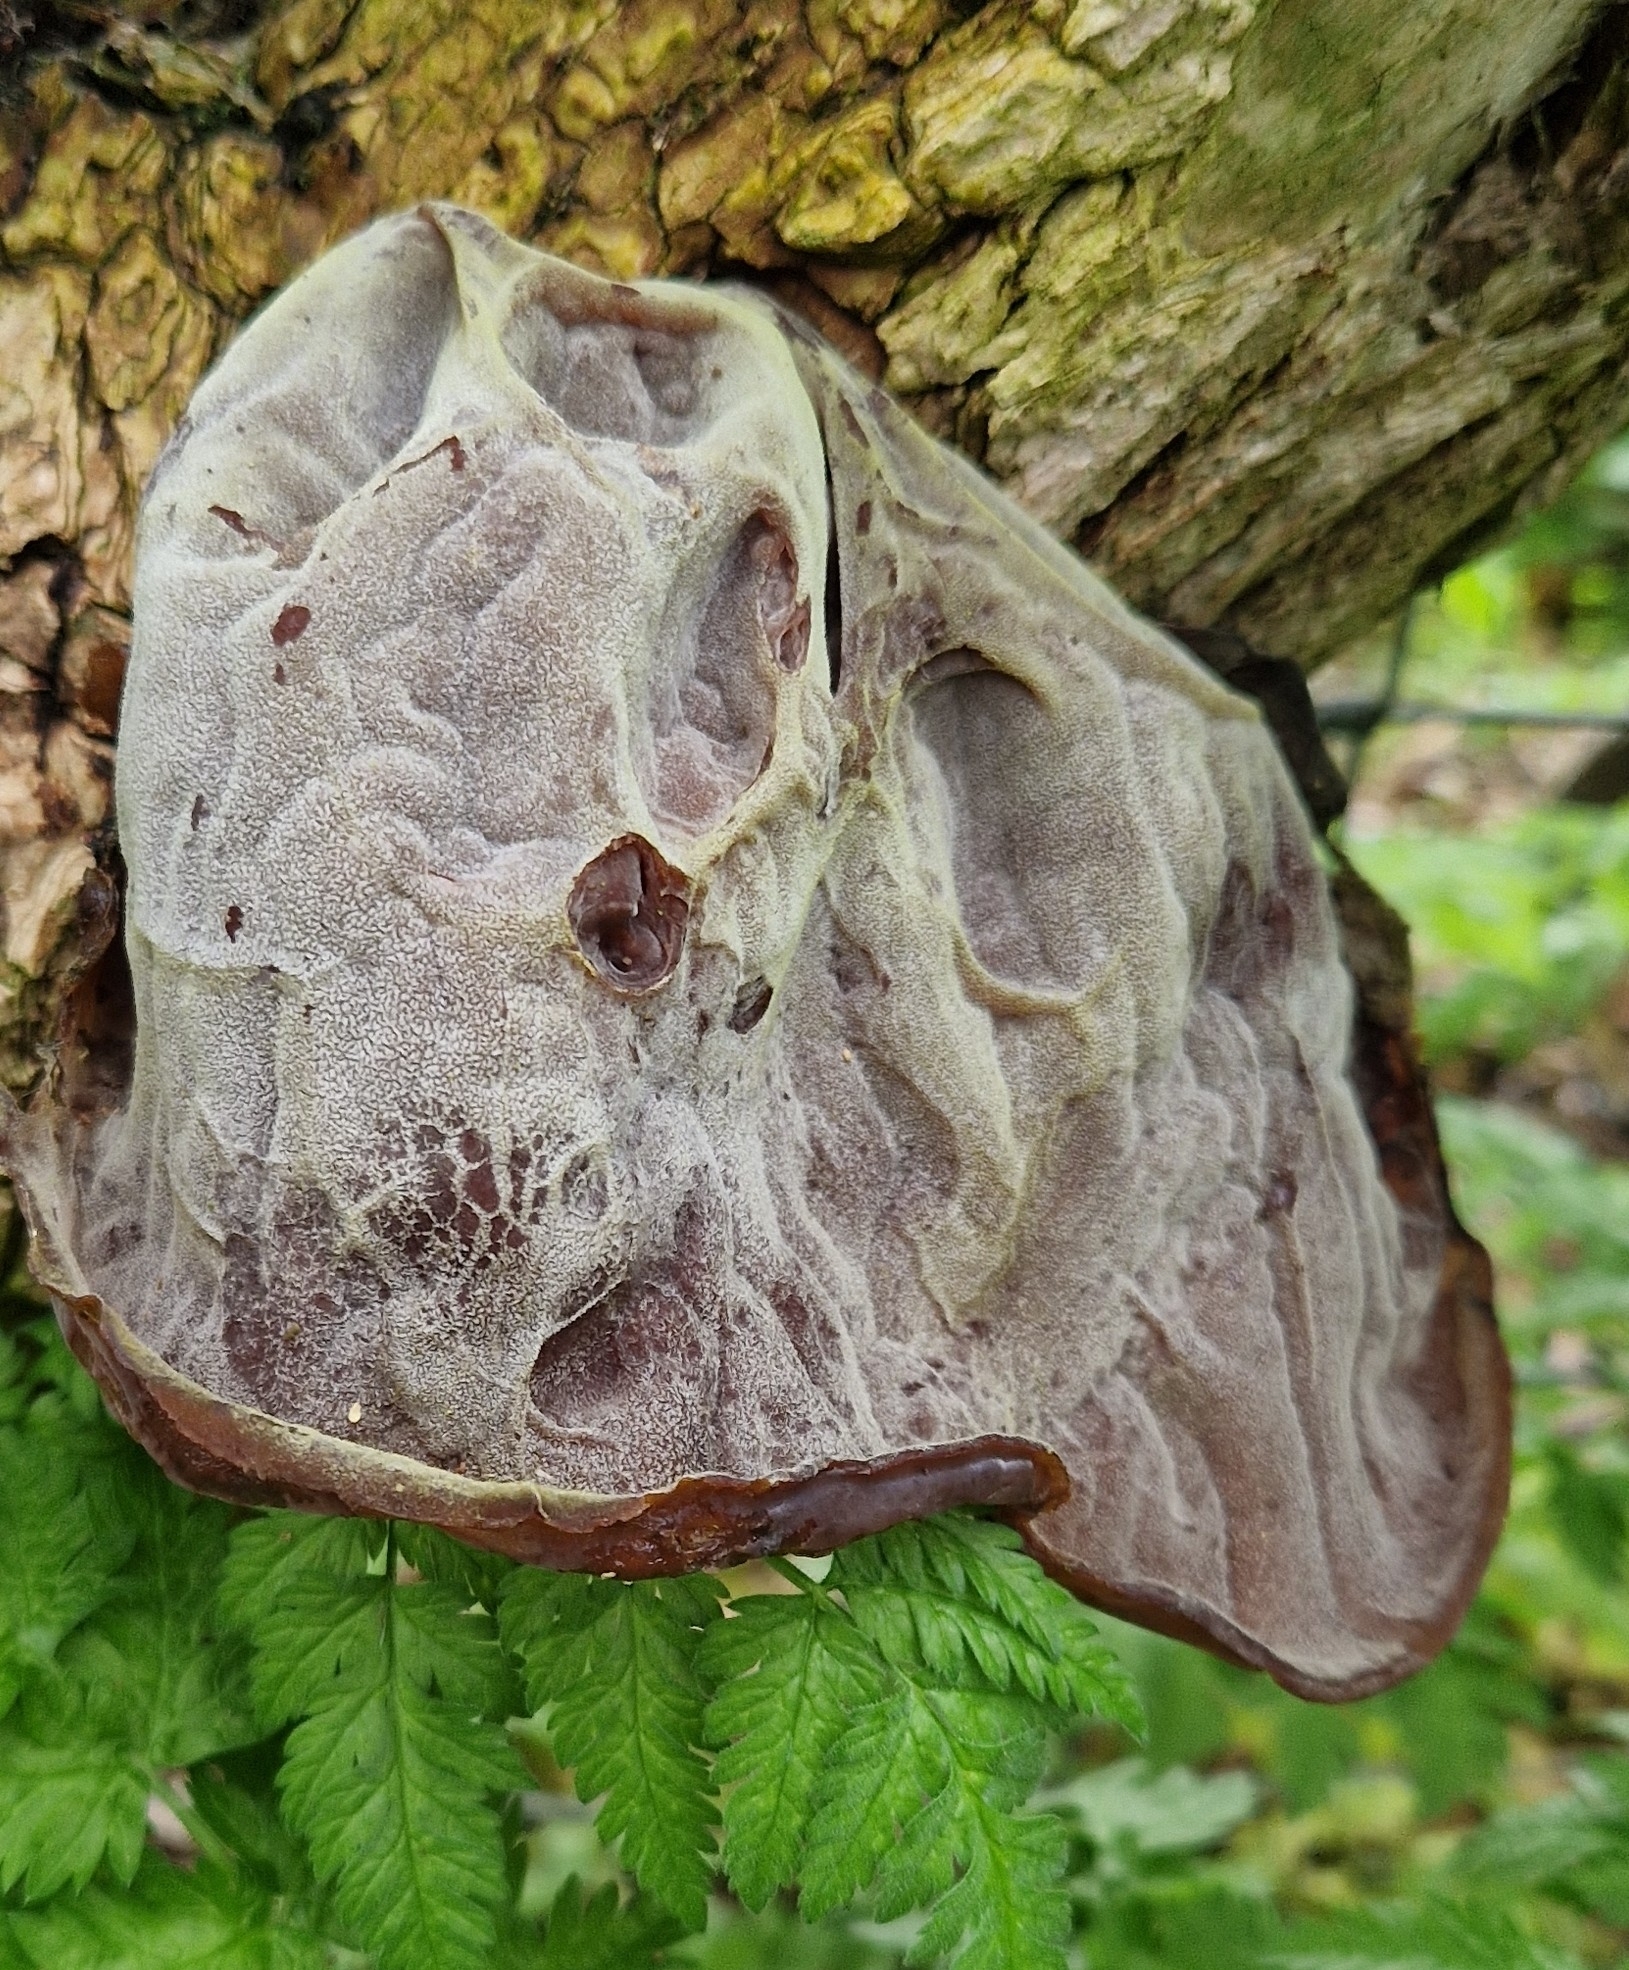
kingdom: Fungi
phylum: Basidiomycota
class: Agaricomycetes
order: Auriculariales
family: Auriculariaceae
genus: Auricularia
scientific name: Auricularia auricula-judae
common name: Jelly ear
